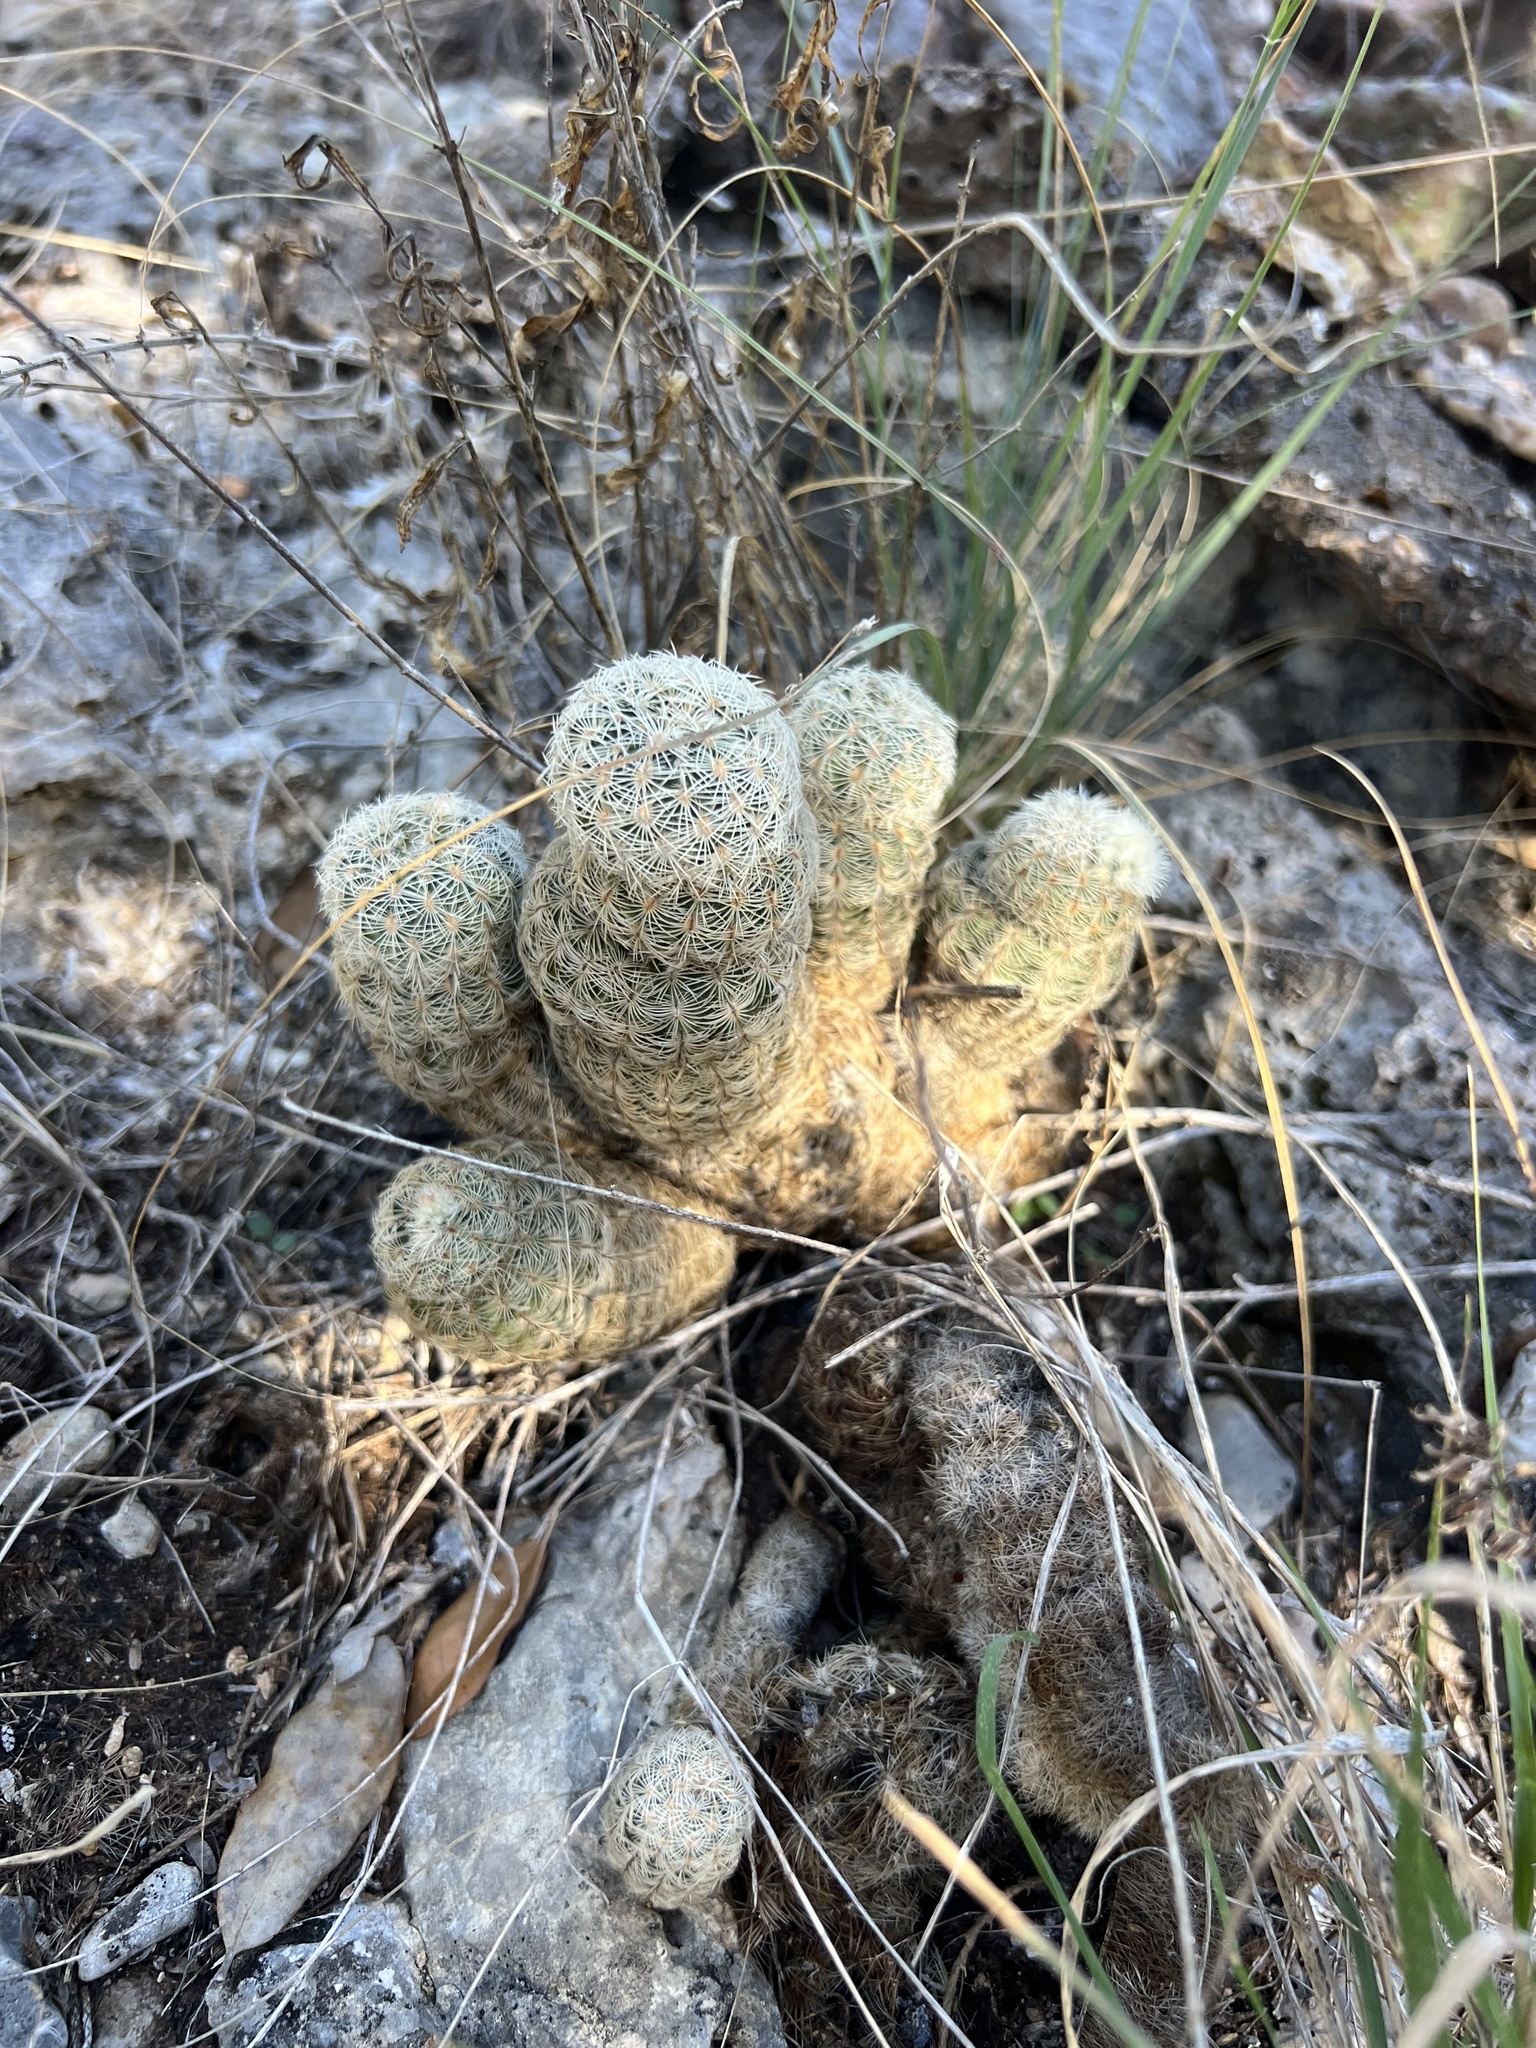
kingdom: Plantae
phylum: Tracheophyta
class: Magnoliopsida
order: Caryophyllales
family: Cactaceae
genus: Echinocereus
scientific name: Echinocereus reichenbachii
